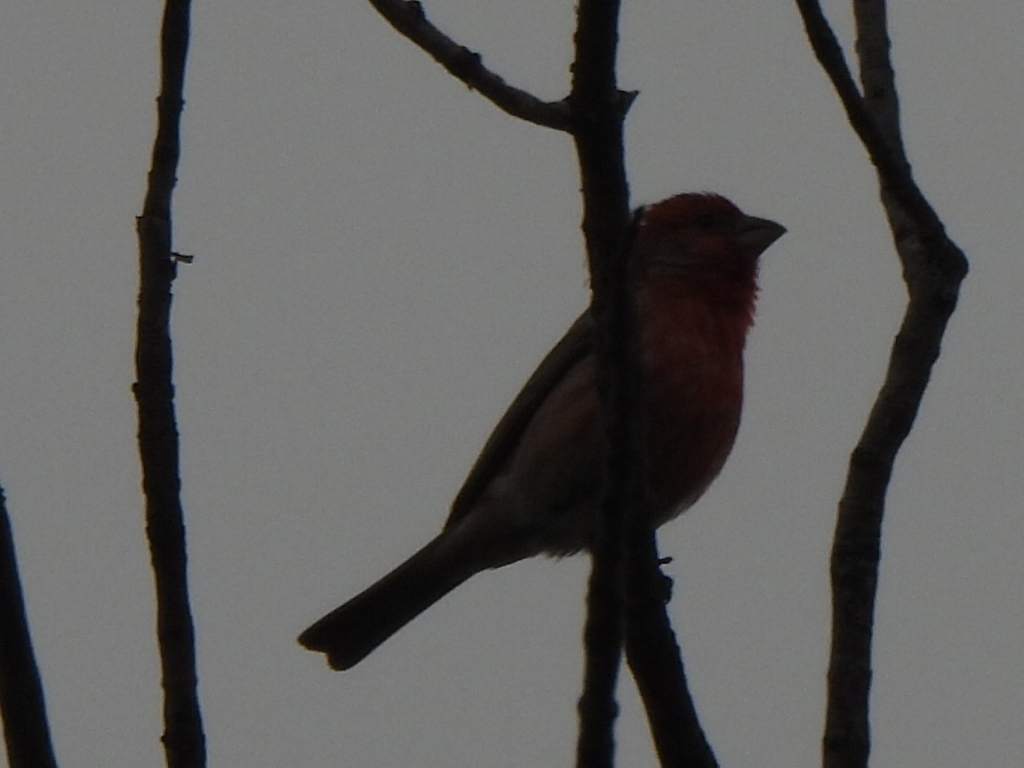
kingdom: Animalia
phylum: Chordata
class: Aves
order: Passeriformes
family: Fringillidae
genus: Haemorhous
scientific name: Haemorhous mexicanus
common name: House finch
